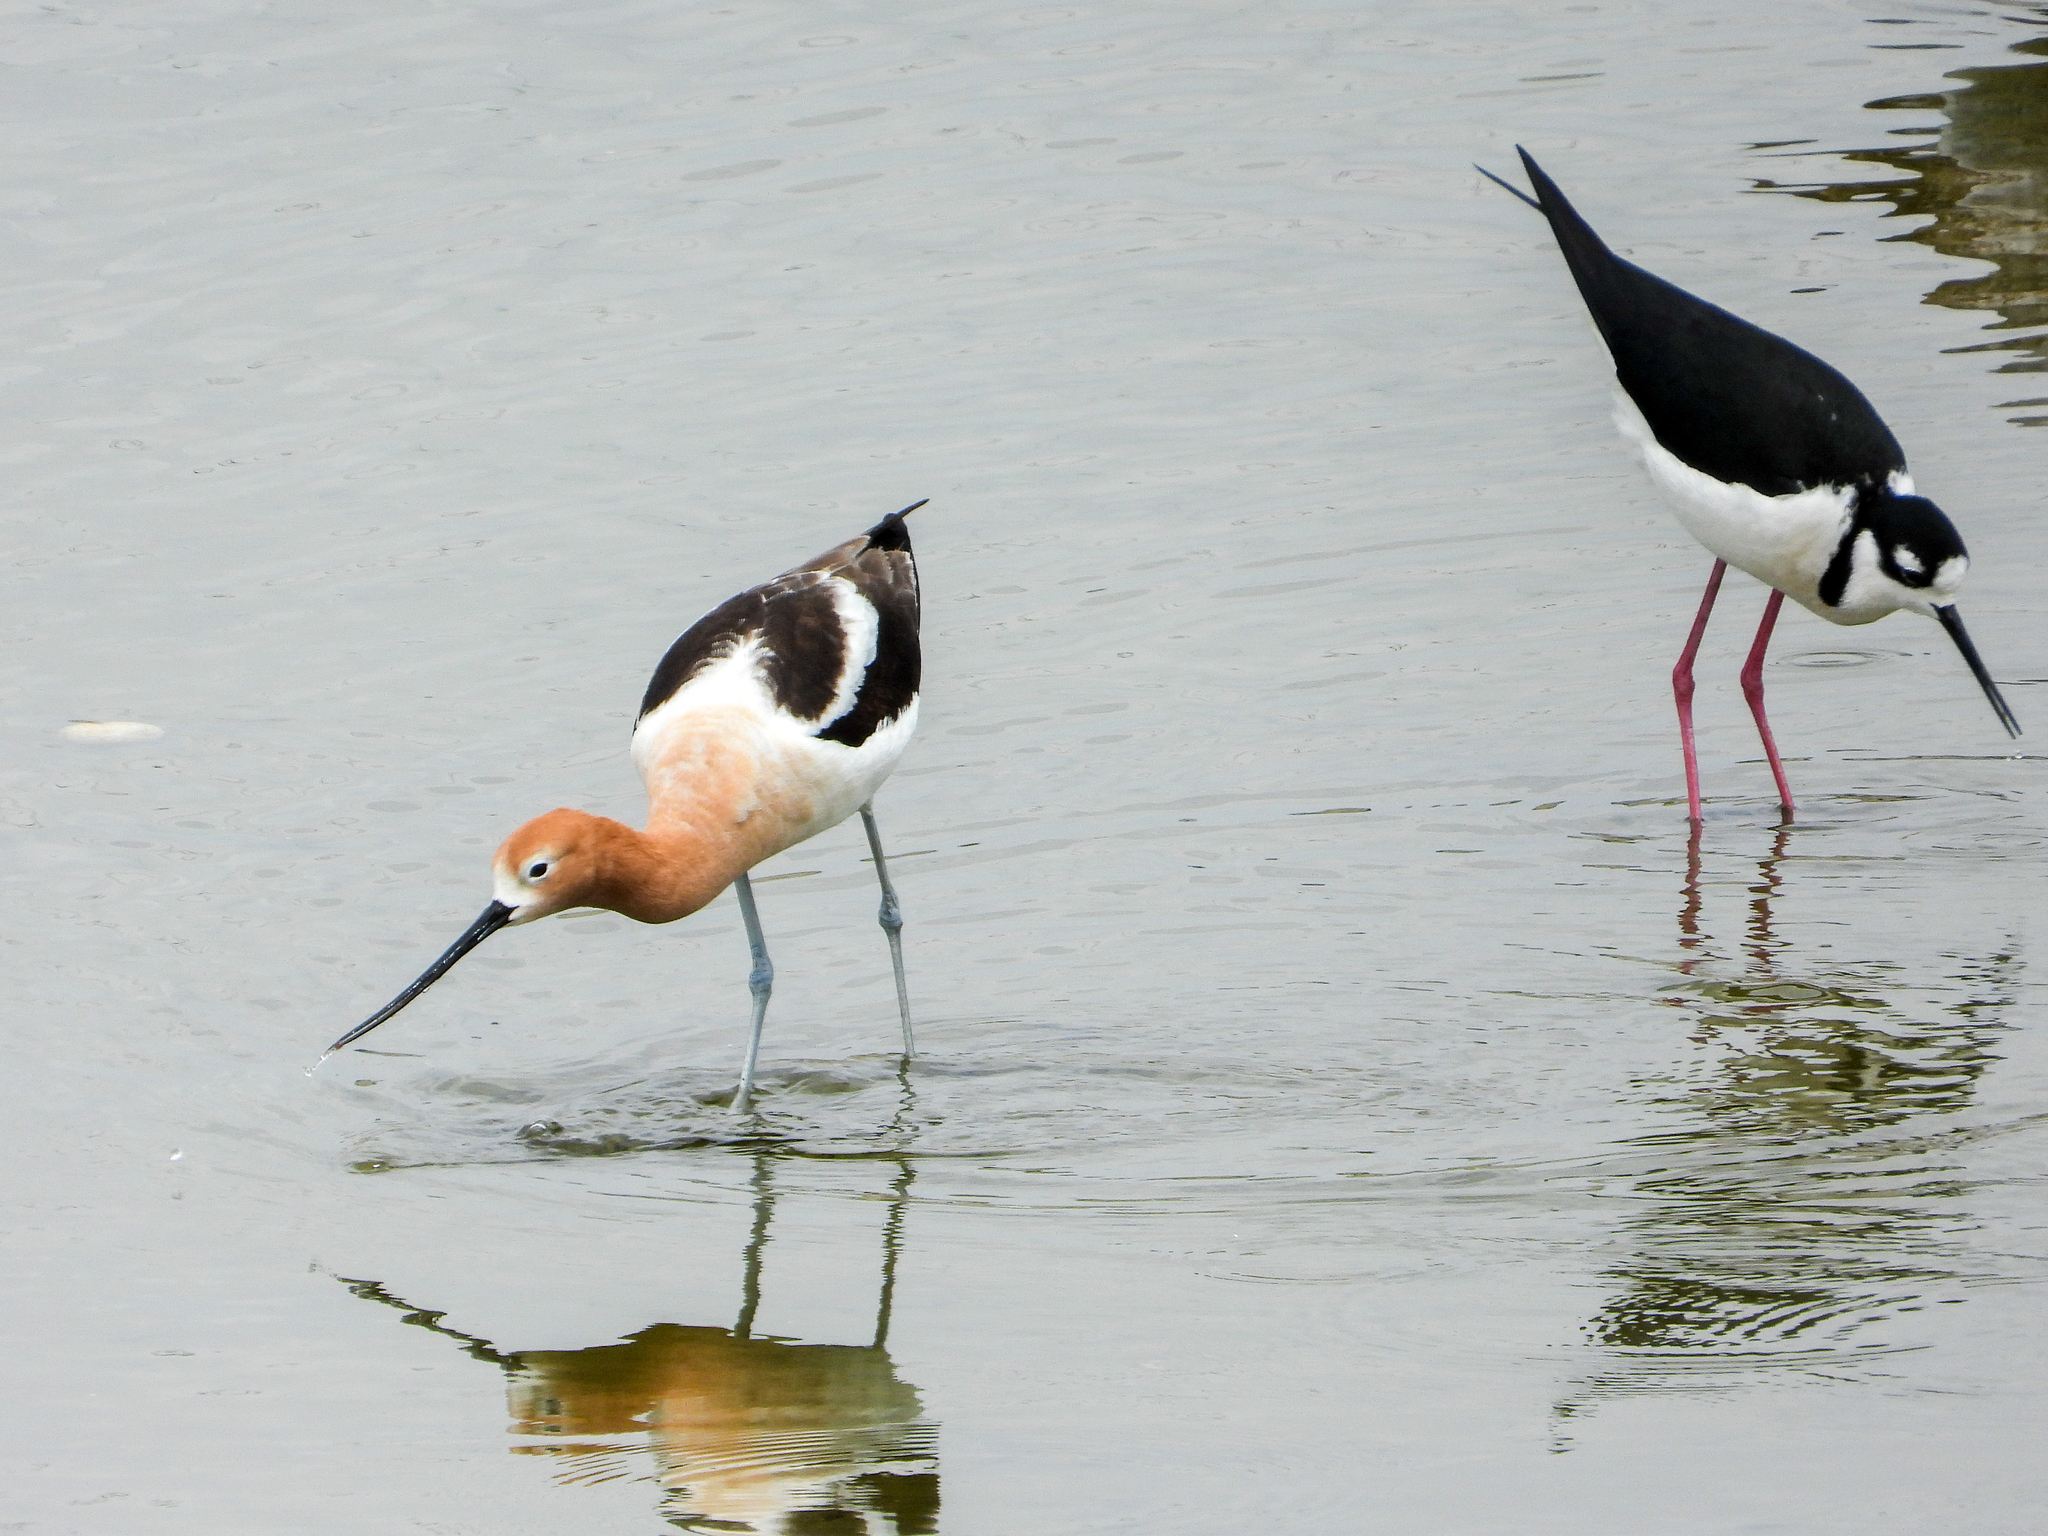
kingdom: Animalia
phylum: Chordata
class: Aves
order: Charadriiformes
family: Recurvirostridae
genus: Recurvirostra
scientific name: Recurvirostra americana
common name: American avocet
